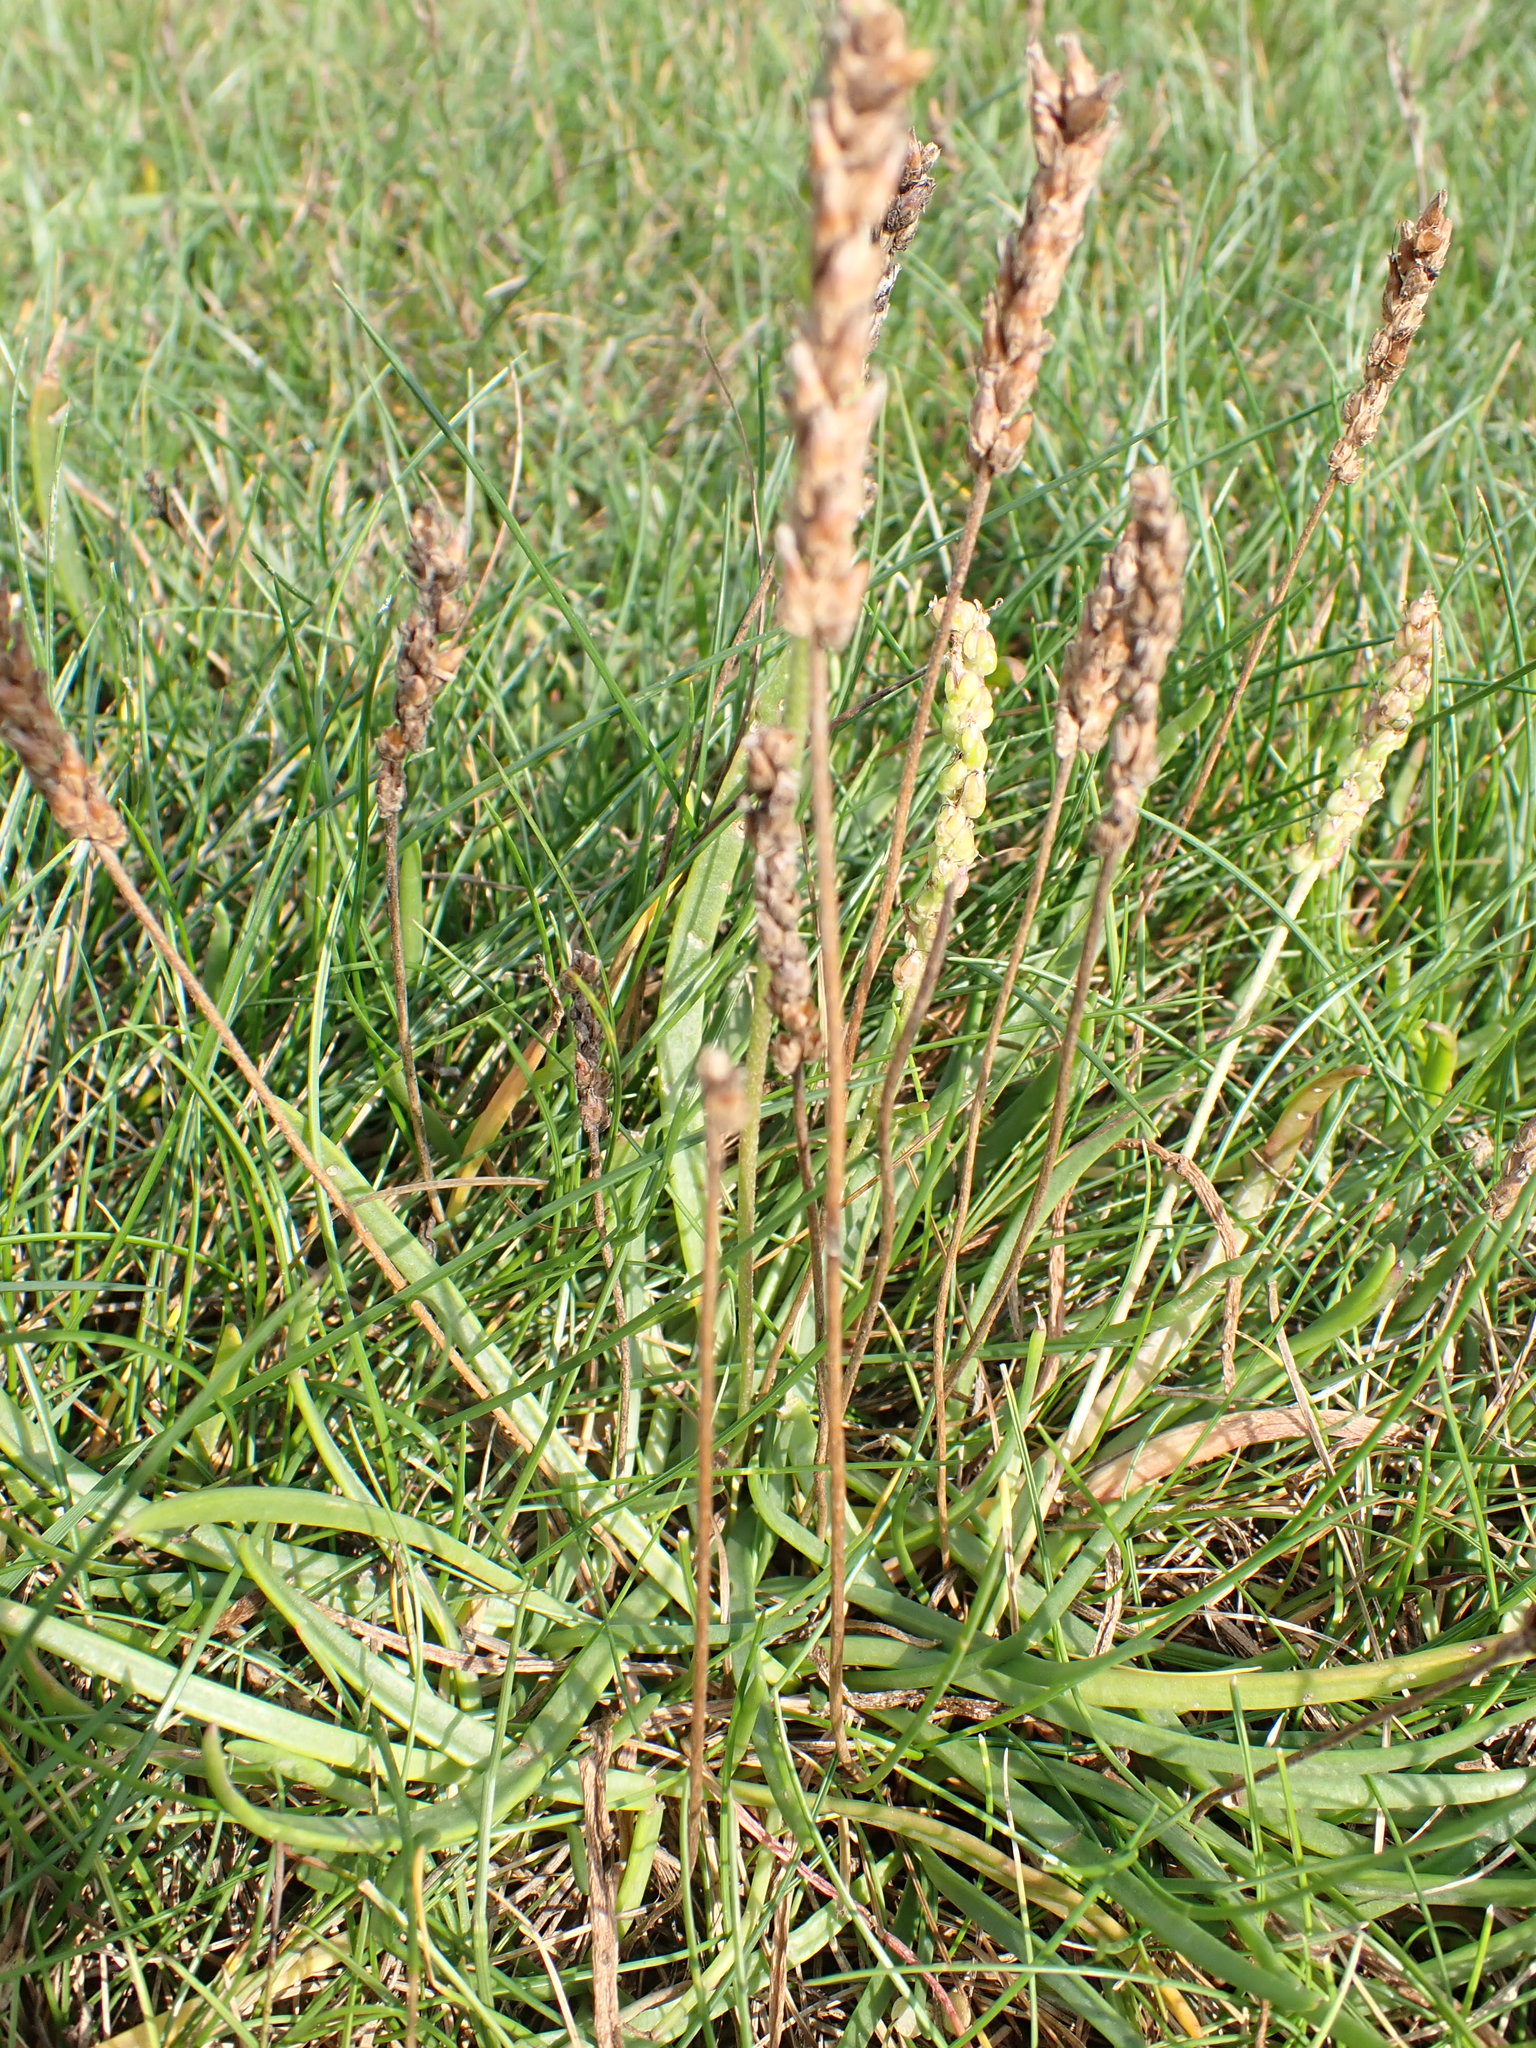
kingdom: Plantae
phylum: Tracheophyta
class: Magnoliopsida
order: Lamiales
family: Plantaginaceae
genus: Plantago
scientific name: Plantago maritima
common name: Sea plantain
